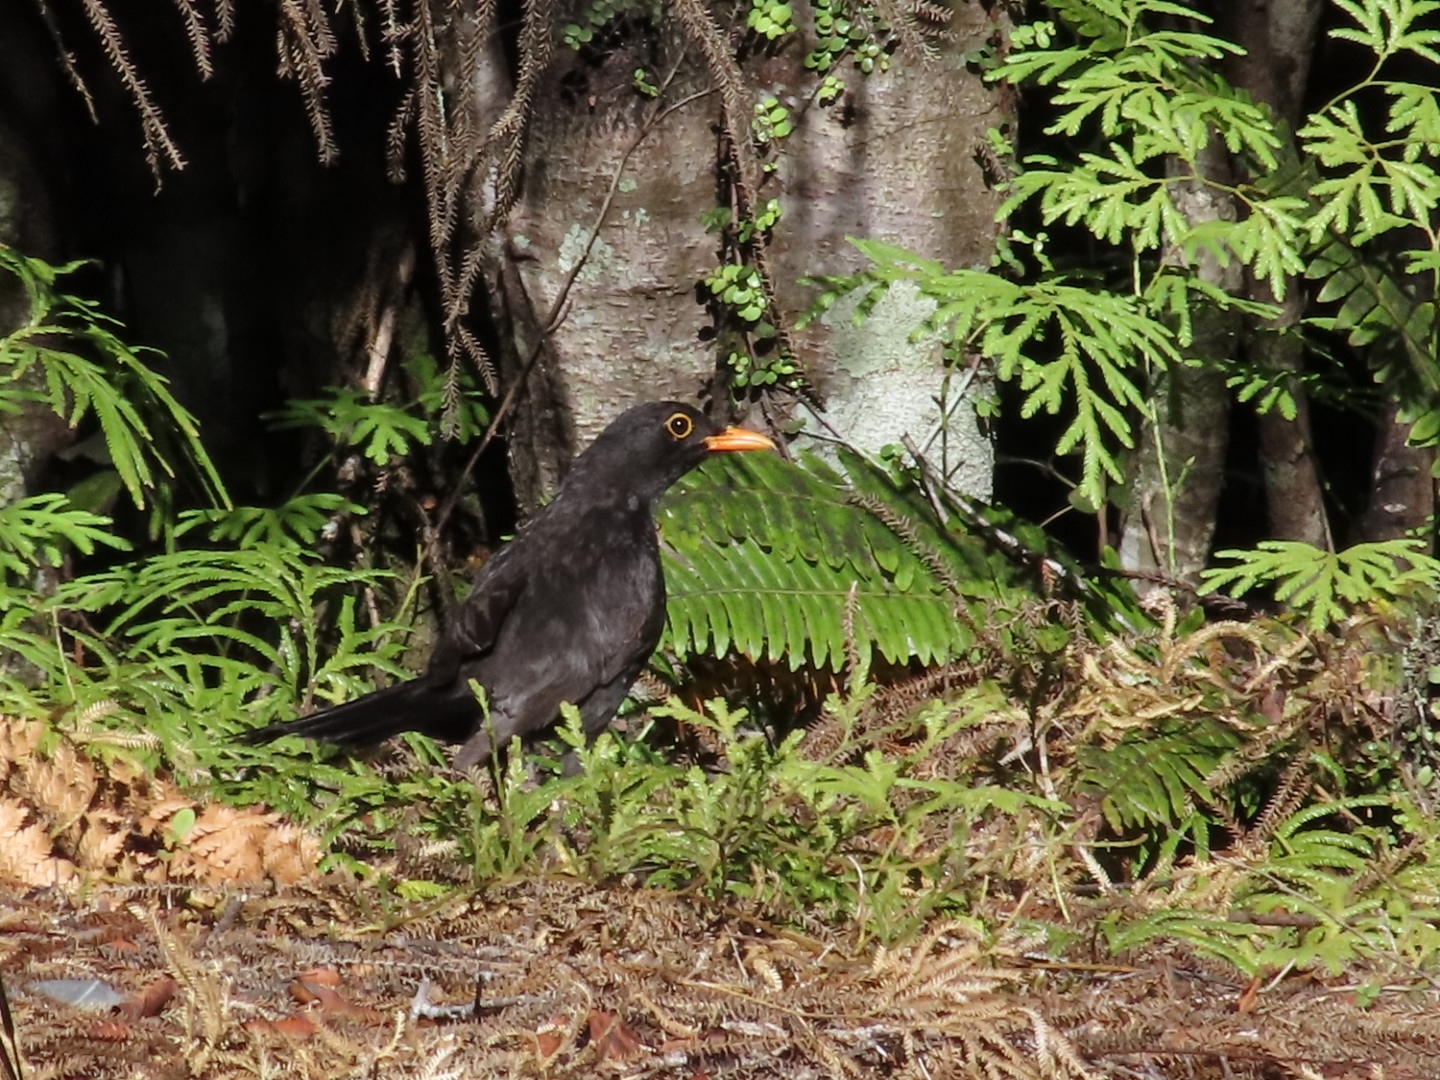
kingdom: Animalia
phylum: Chordata
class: Aves
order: Passeriformes
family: Turdidae
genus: Turdus
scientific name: Turdus merula
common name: Common blackbird
